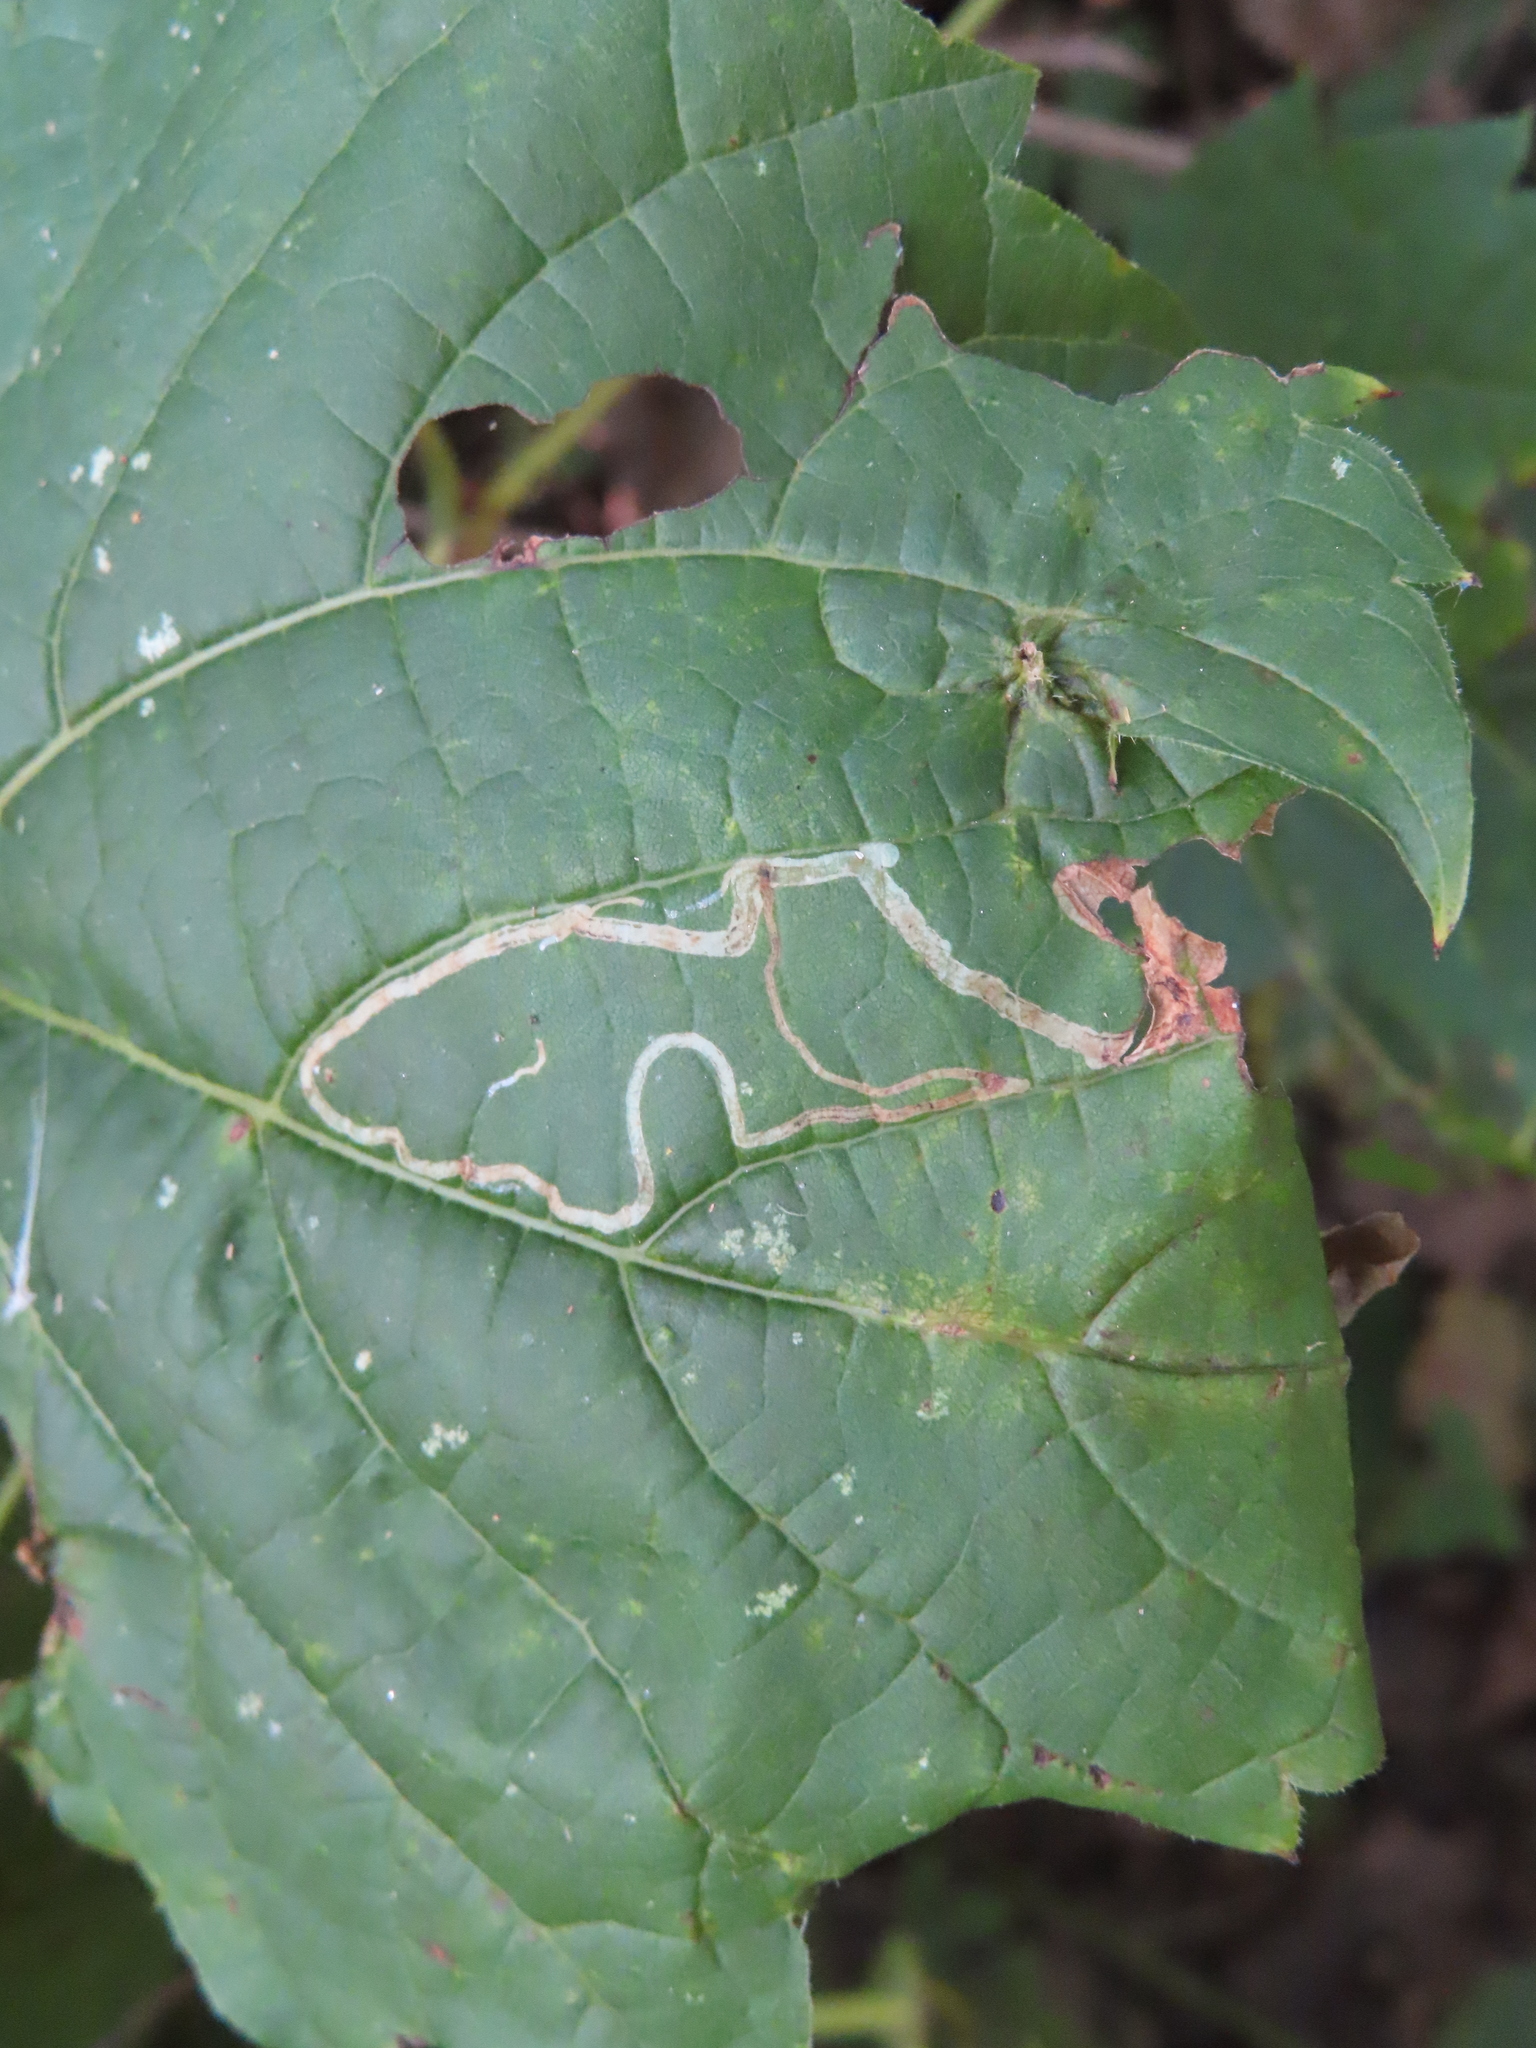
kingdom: Animalia
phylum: Arthropoda
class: Insecta
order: Lepidoptera
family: Gracillariidae
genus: Phyllocnistis
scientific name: Phyllocnistis vitifoliella
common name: Grape leaf-miner moth
